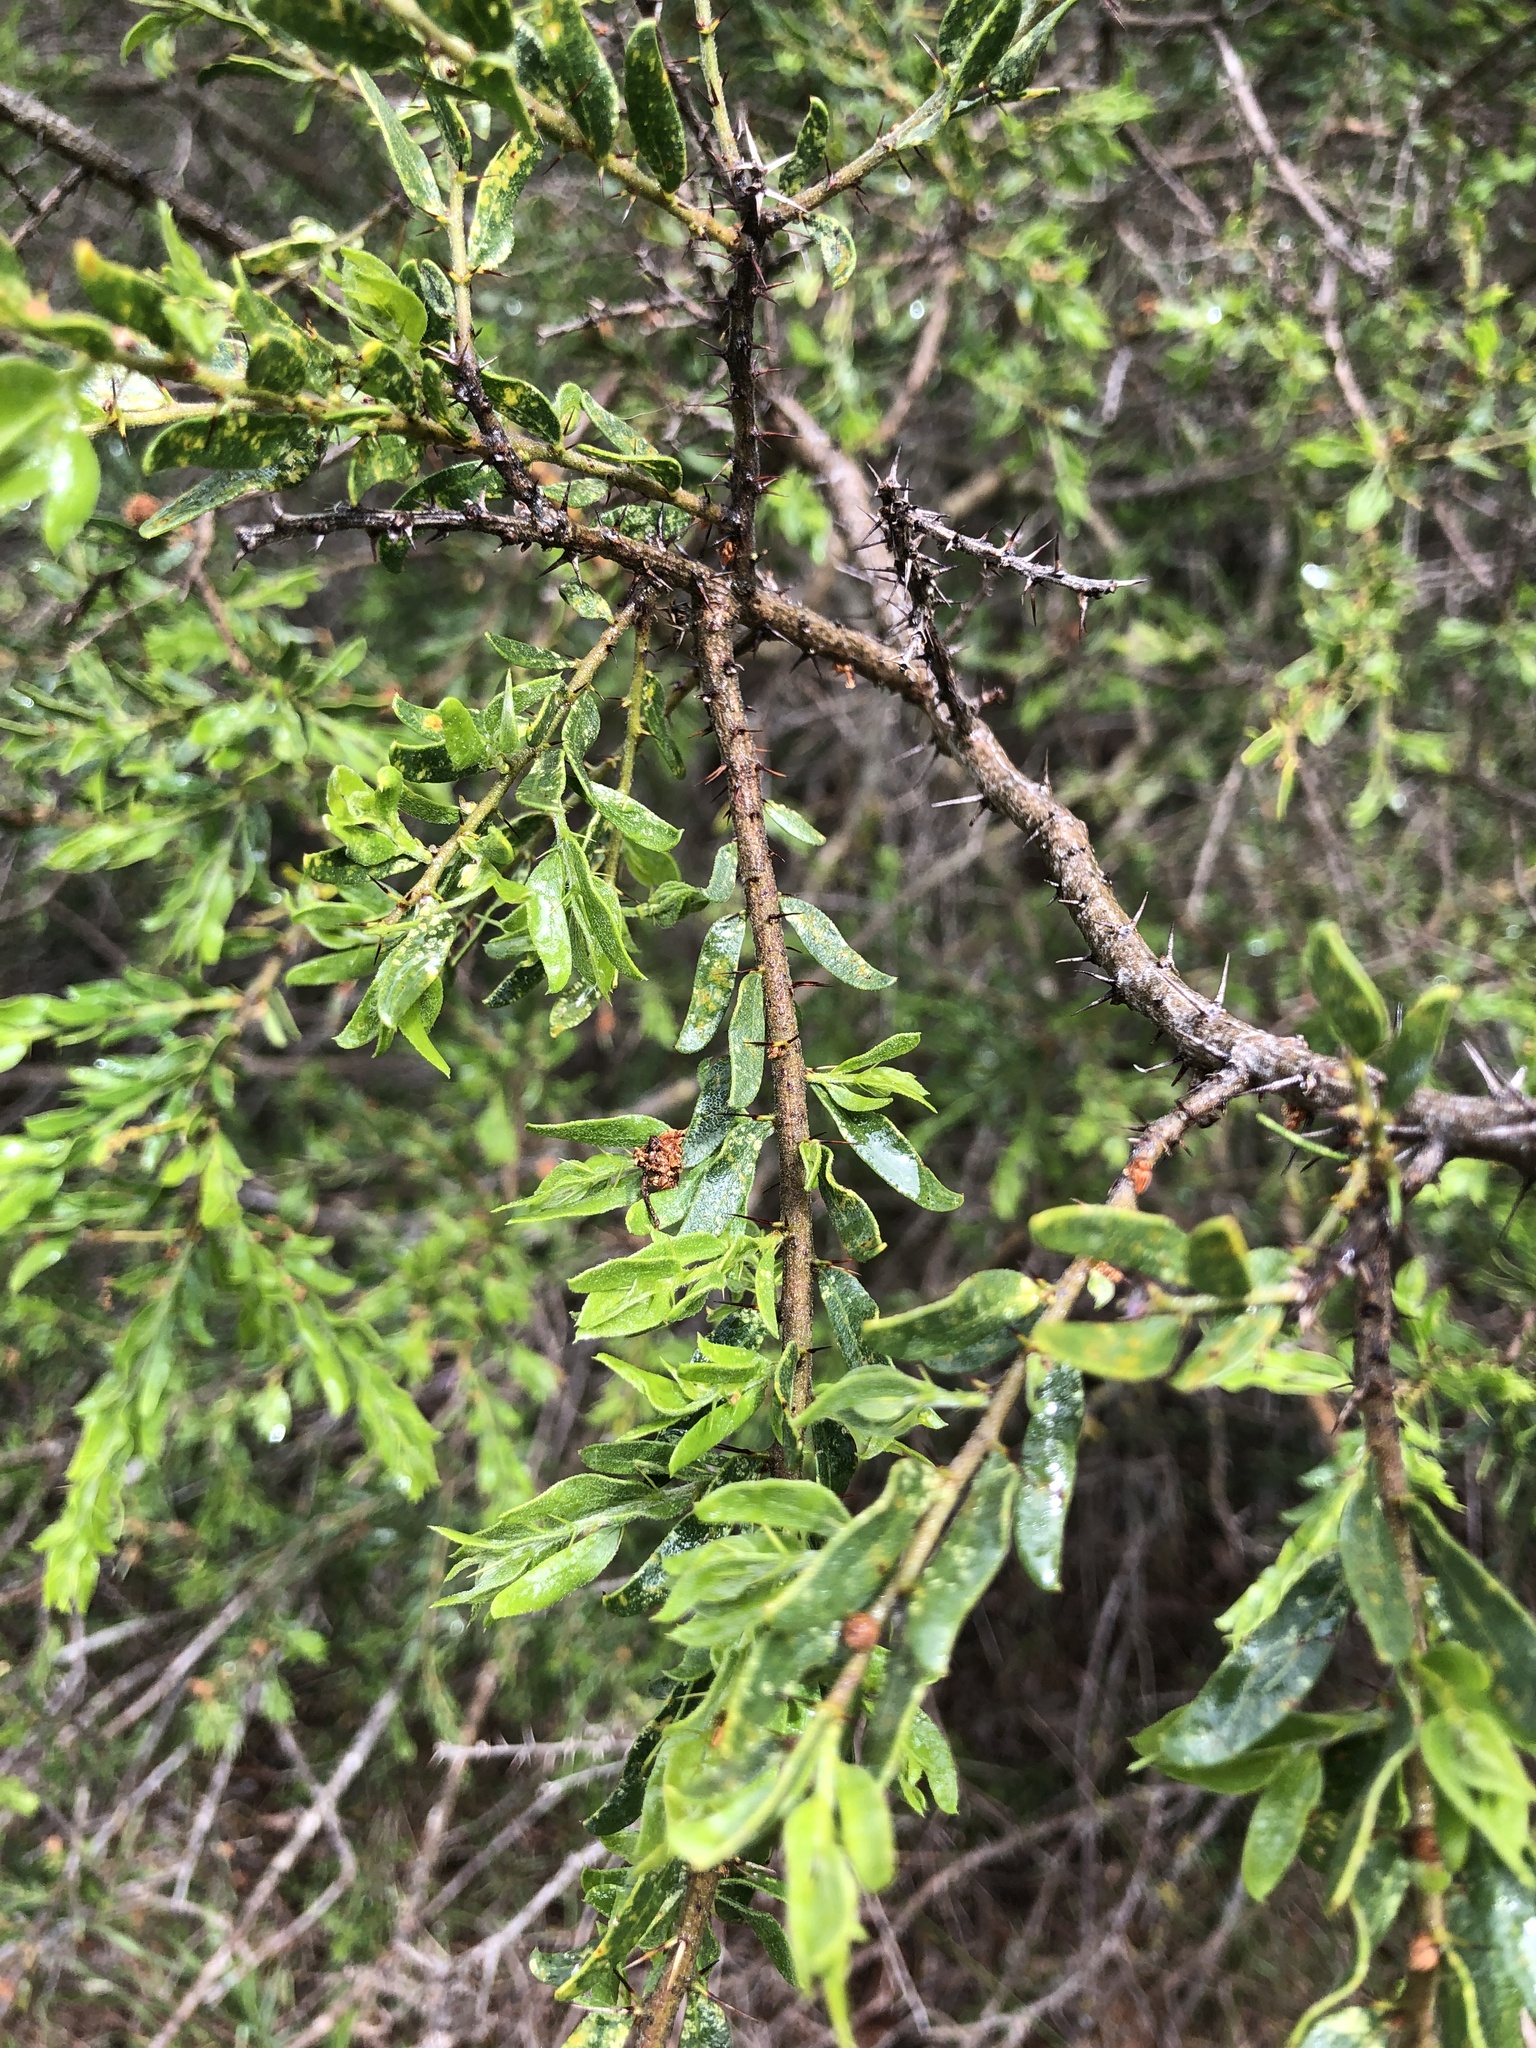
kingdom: Plantae
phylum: Tracheophyta
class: Magnoliopsida
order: Fabales
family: Fabaceae
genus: Acacia
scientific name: Acacia paradoxa
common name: Paradox acacia
